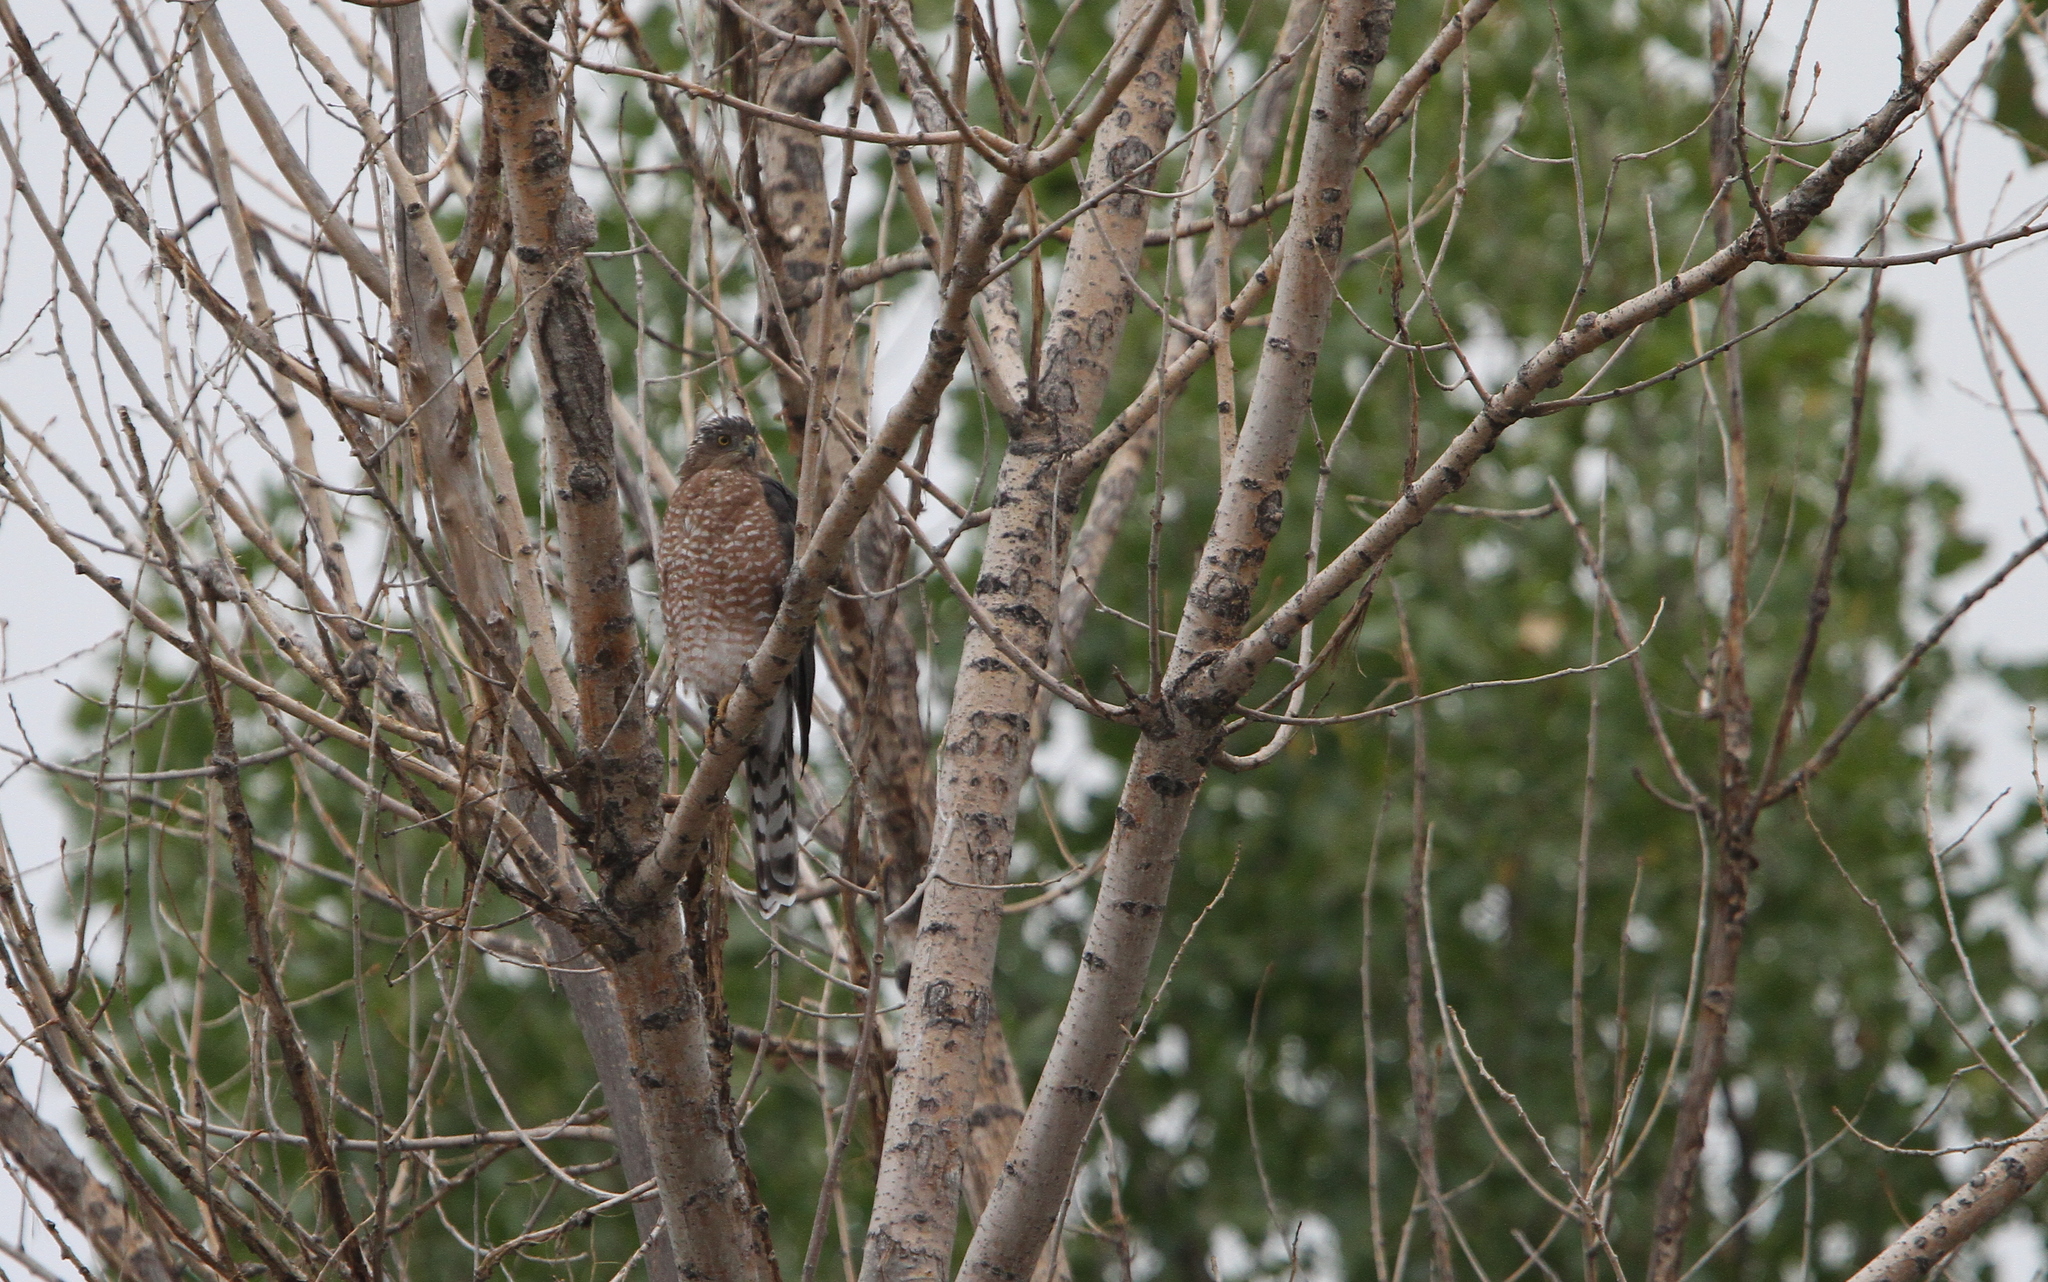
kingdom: Animalia
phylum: Chordata
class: Aves
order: Accipitriformes
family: Accipitridae
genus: Accipiter
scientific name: Accipiter cooperii
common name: Cooper's hawk
